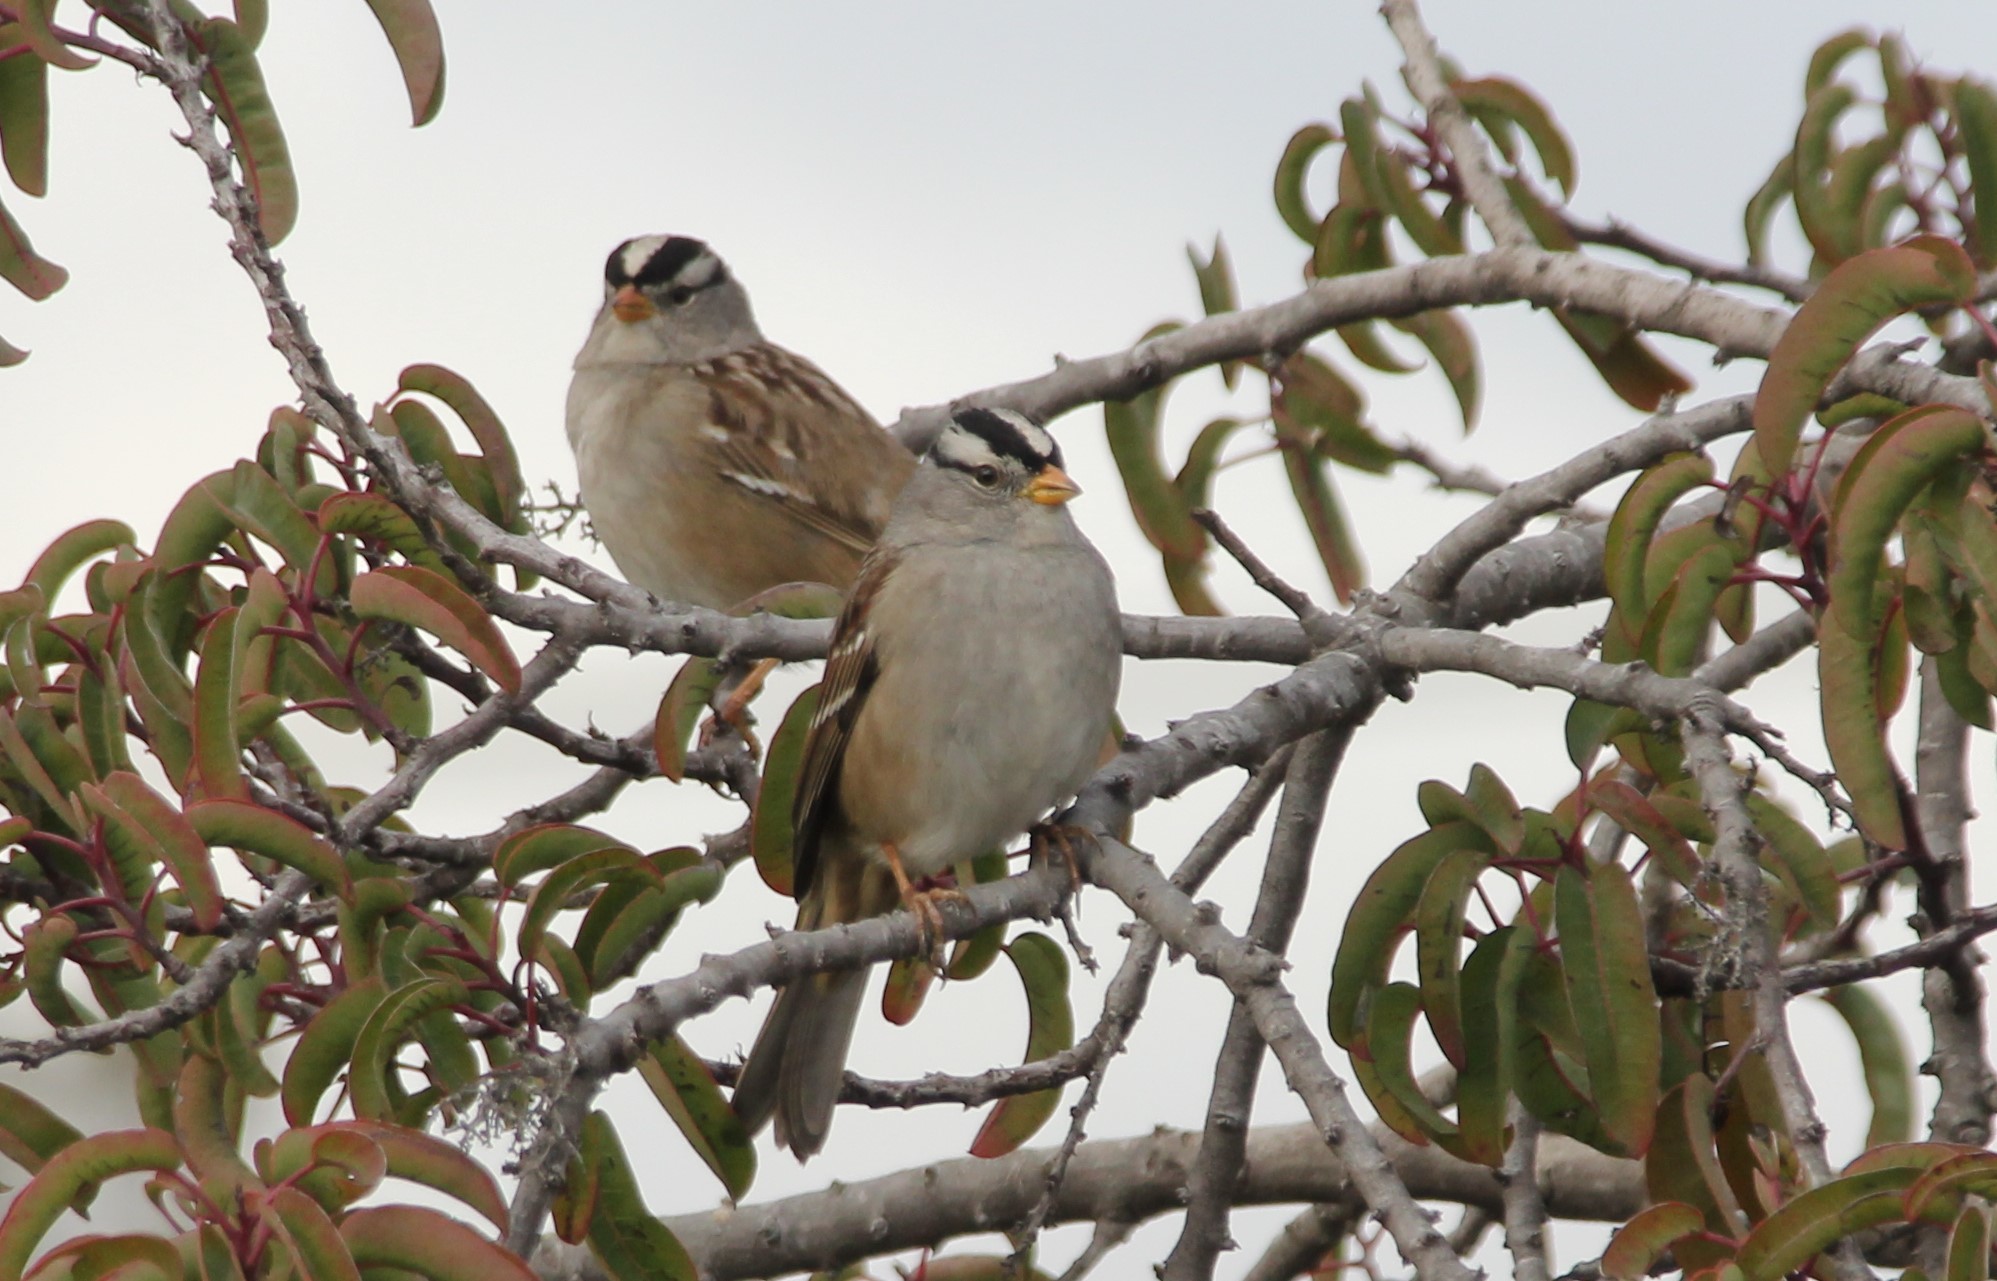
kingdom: Animalia
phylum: Chordata
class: Aves
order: Passeriformes
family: Passerellidae
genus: Zonotrichia
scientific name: Zonotrichia leucophrys
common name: White-crowned sparrow
